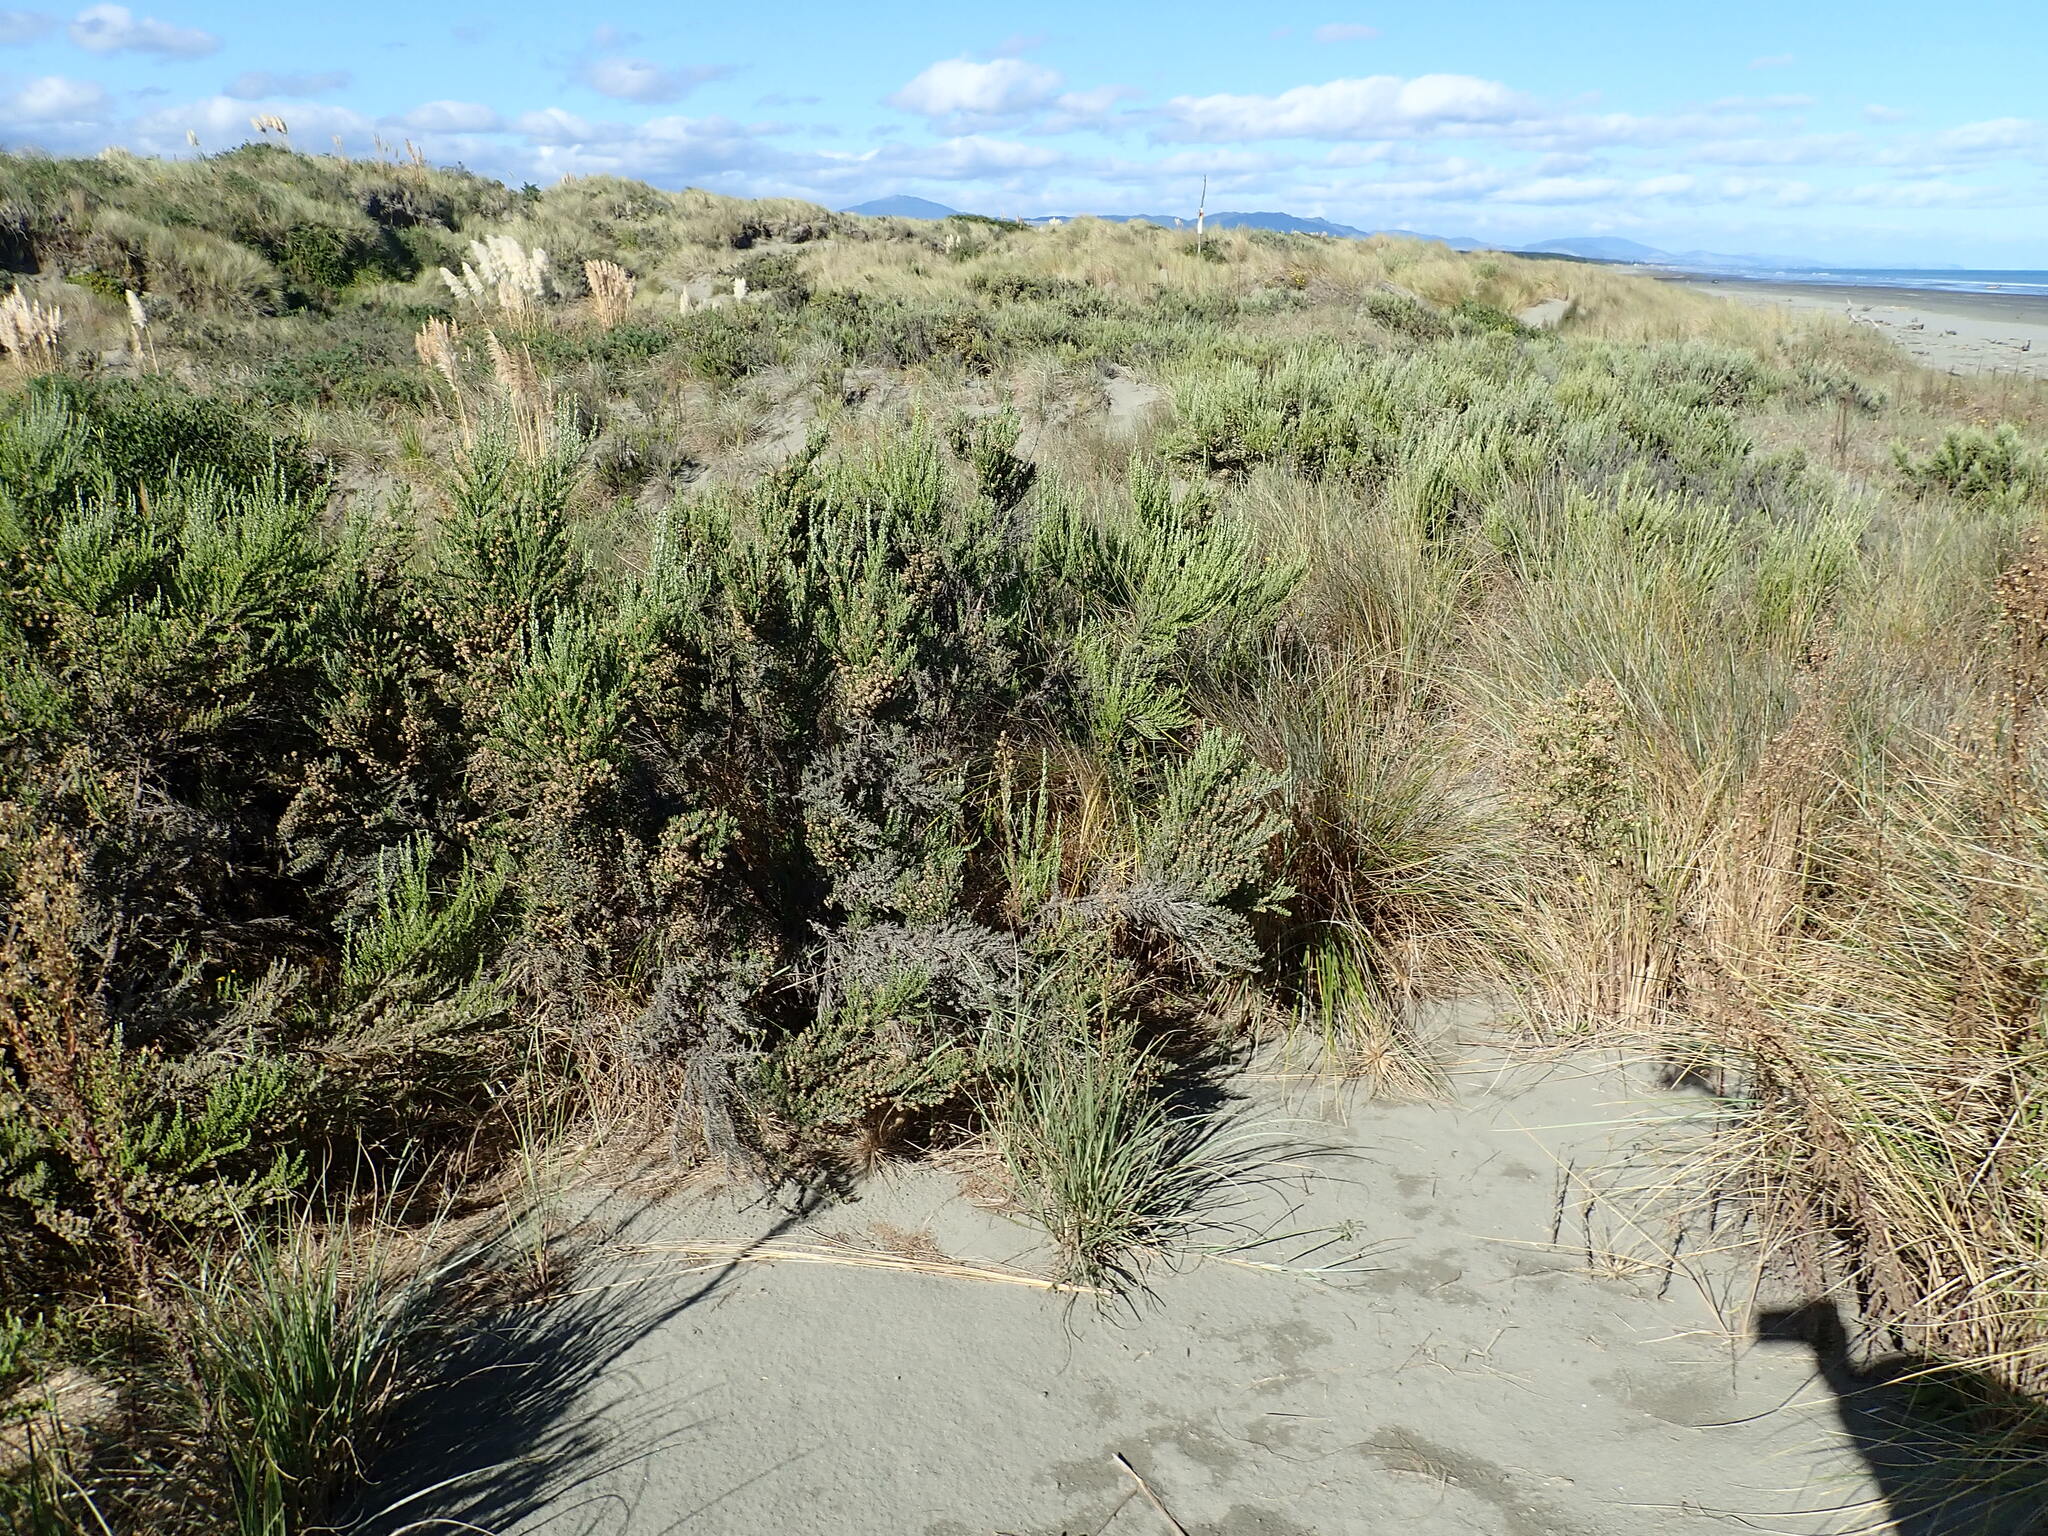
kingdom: Plantae
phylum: Tracheophyta
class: Magnoliopsida
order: Asterales
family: Asteraceae
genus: Ozothamnus
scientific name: Ozothamnus leptophyllus
